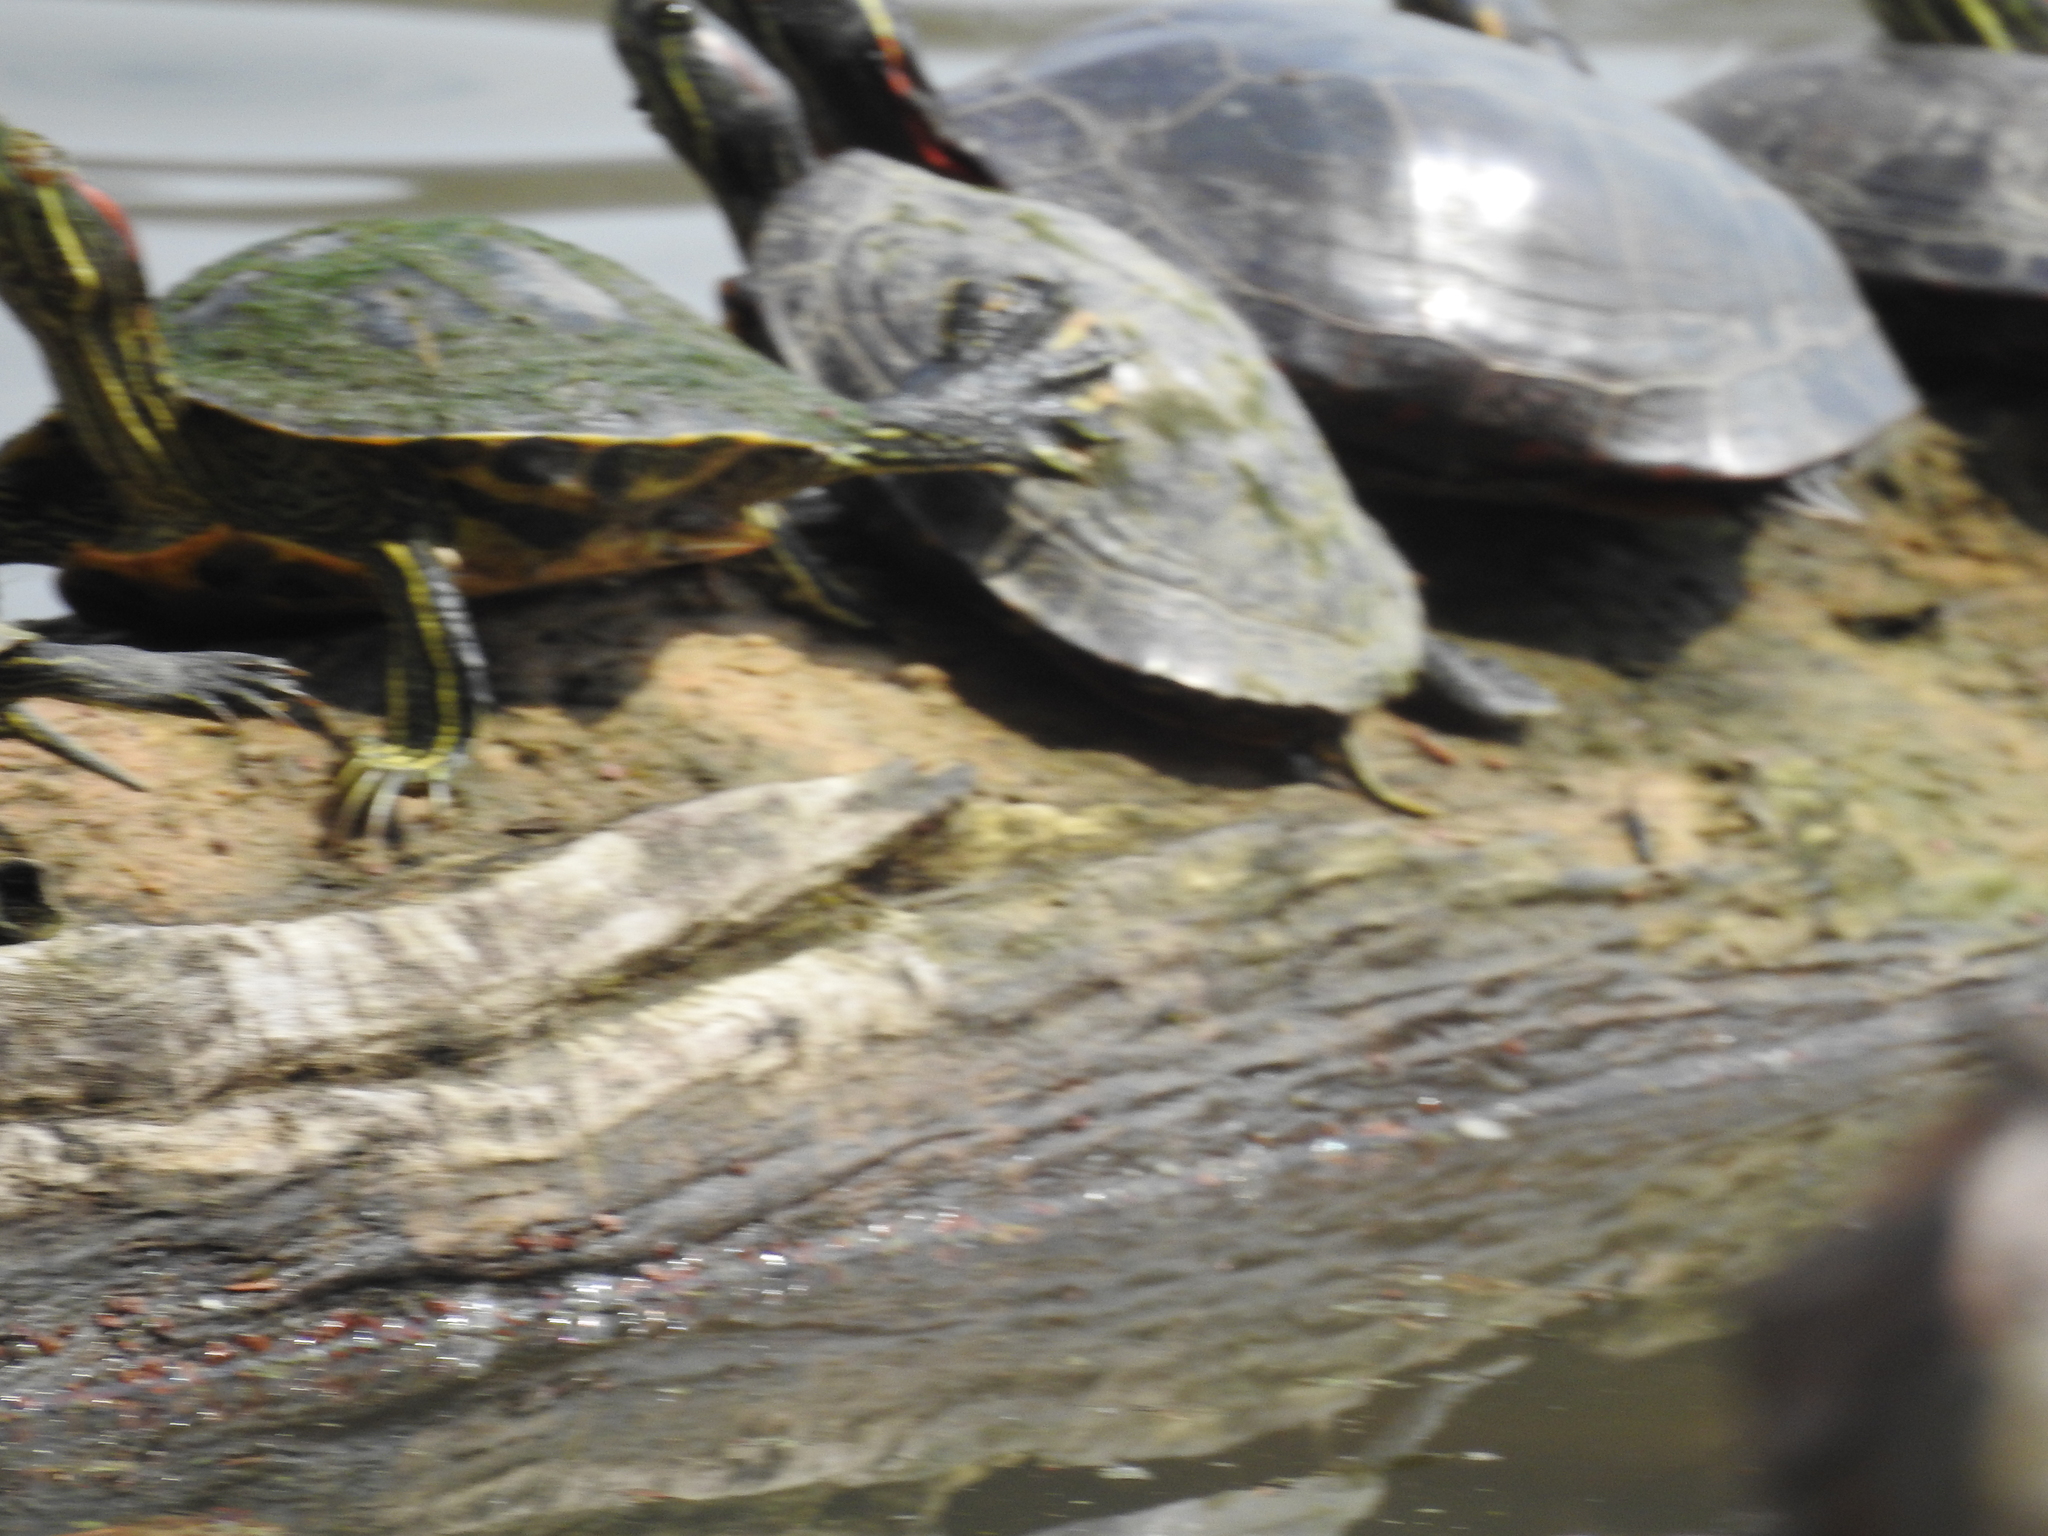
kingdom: Animalia
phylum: Chordata
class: Testudines
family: Emydidae
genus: Trachemys
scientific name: Trachemys scripta
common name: Slider
